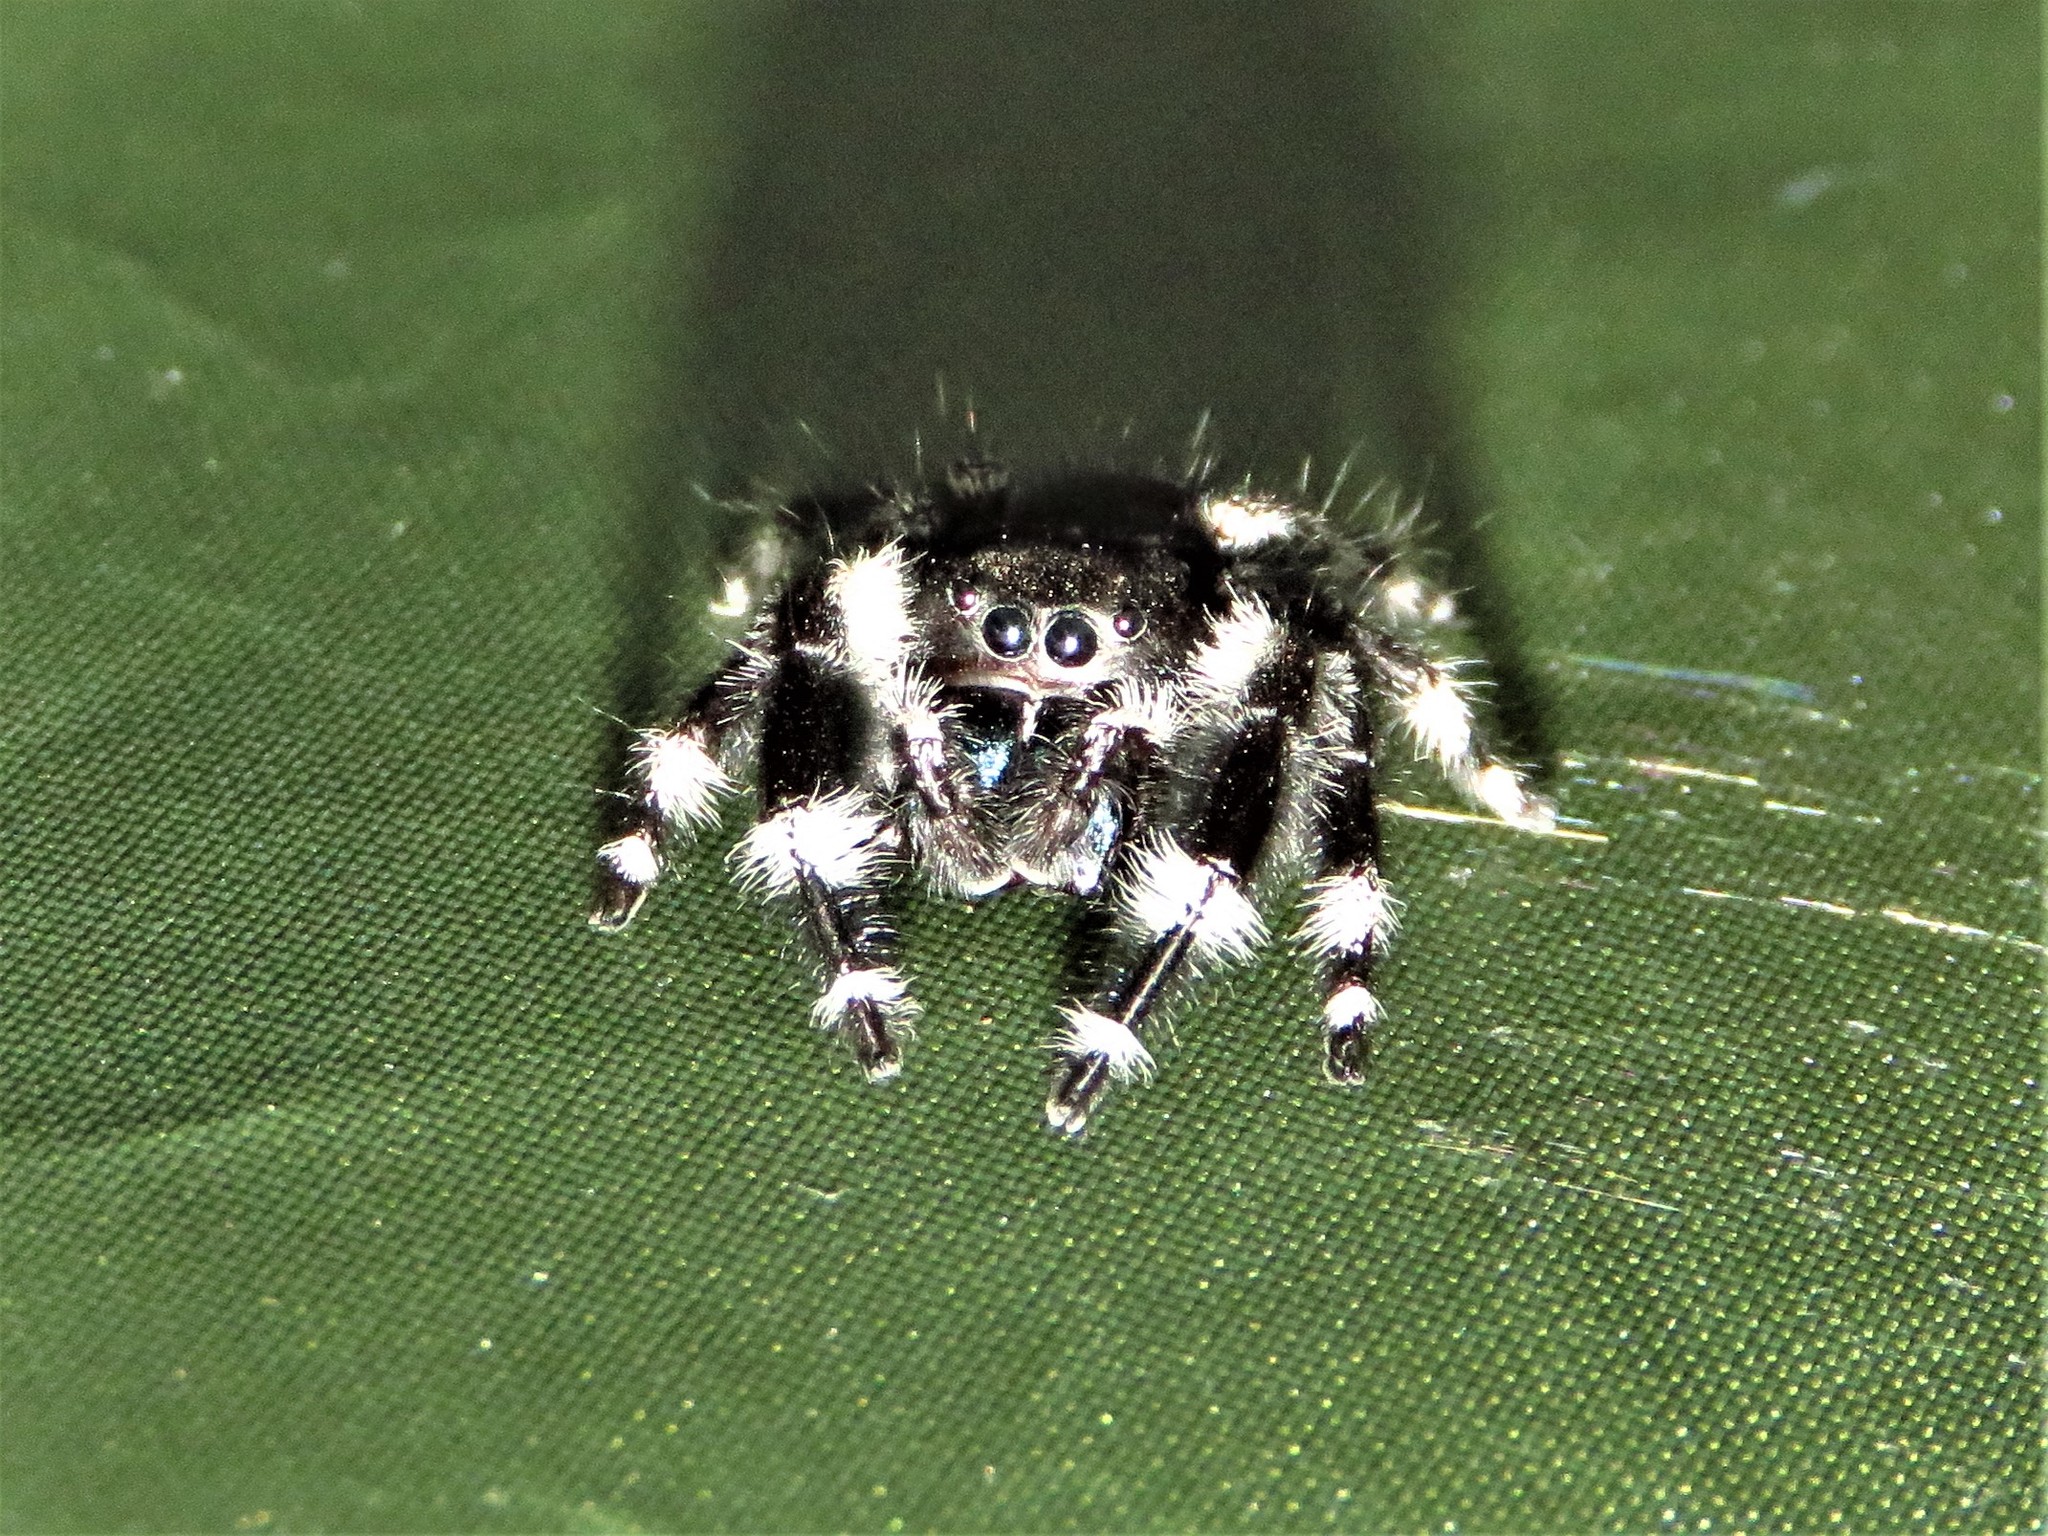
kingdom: Animalia
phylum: Arthropoda
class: Arachnida
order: Araneae
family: Salticidae
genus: Phidippus
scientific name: Phidippus audax
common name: Bold jumper
